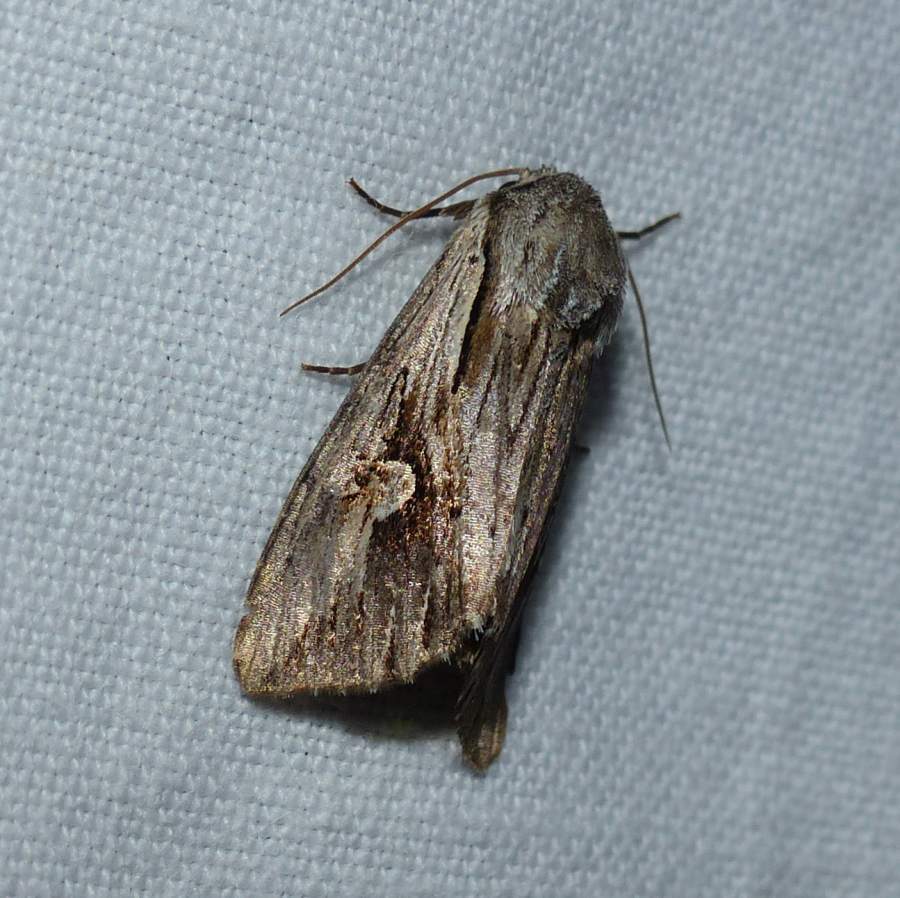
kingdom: Animalia
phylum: Arthropoda
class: Insecta
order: Lepidoptera
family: Noctuidae
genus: Nedra
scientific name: Nedra ramosula
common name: Gray half-spot
